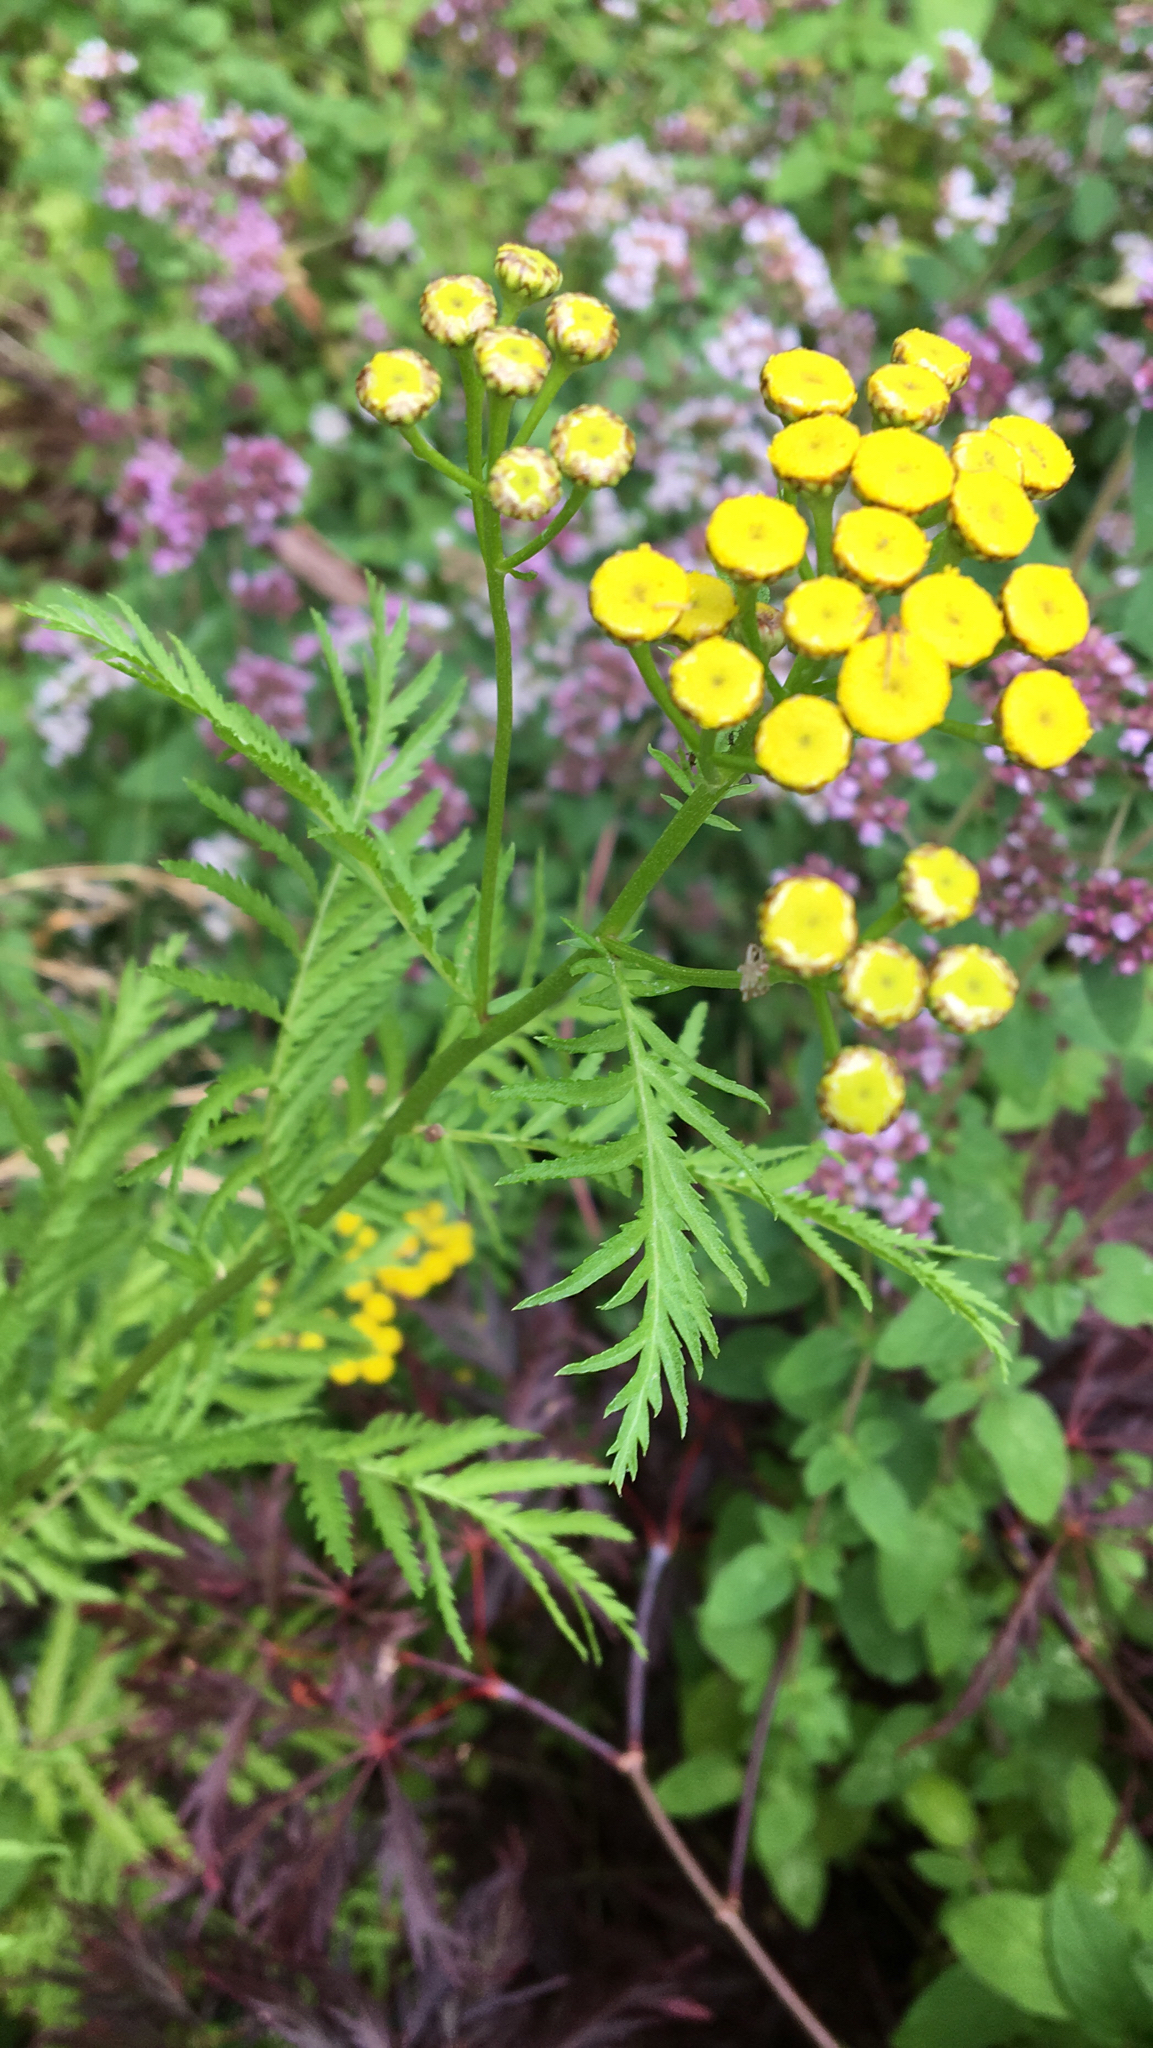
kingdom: Plantae
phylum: Tracheophyta
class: Magnoliopsida
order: Asterales
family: Asteraceae
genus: Tanacetum
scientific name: Tanacetum vulgare
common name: Common tansy
